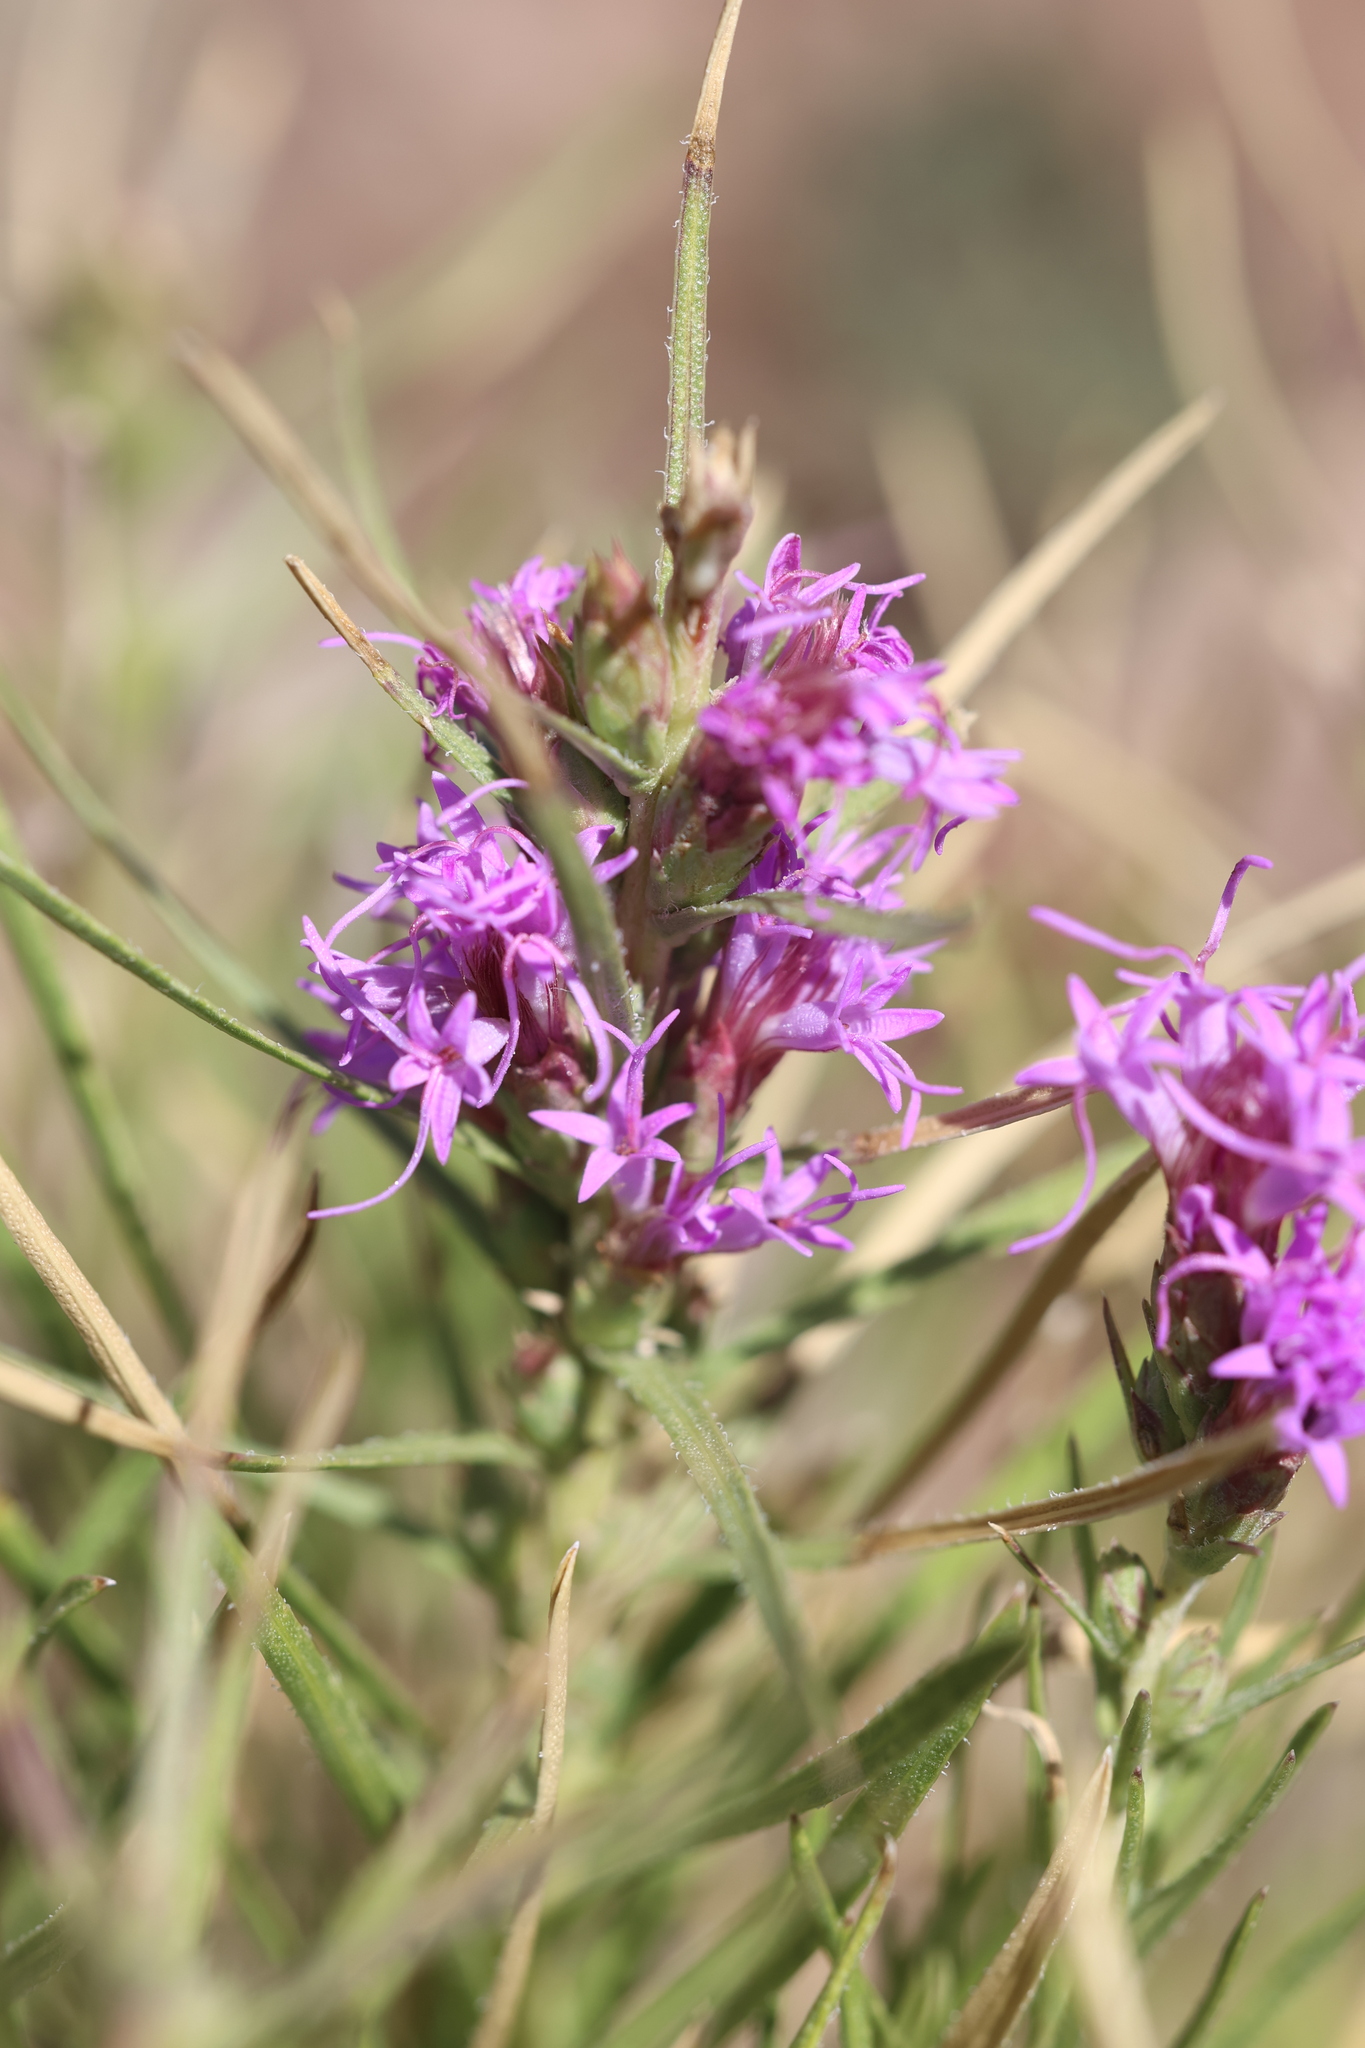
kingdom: Plantae
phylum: Tracheophyta
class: Magnoliopsida
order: Asterales
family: Asteraceae
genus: Liatris
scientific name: Liatris punctata
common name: Dotted gayfeather
